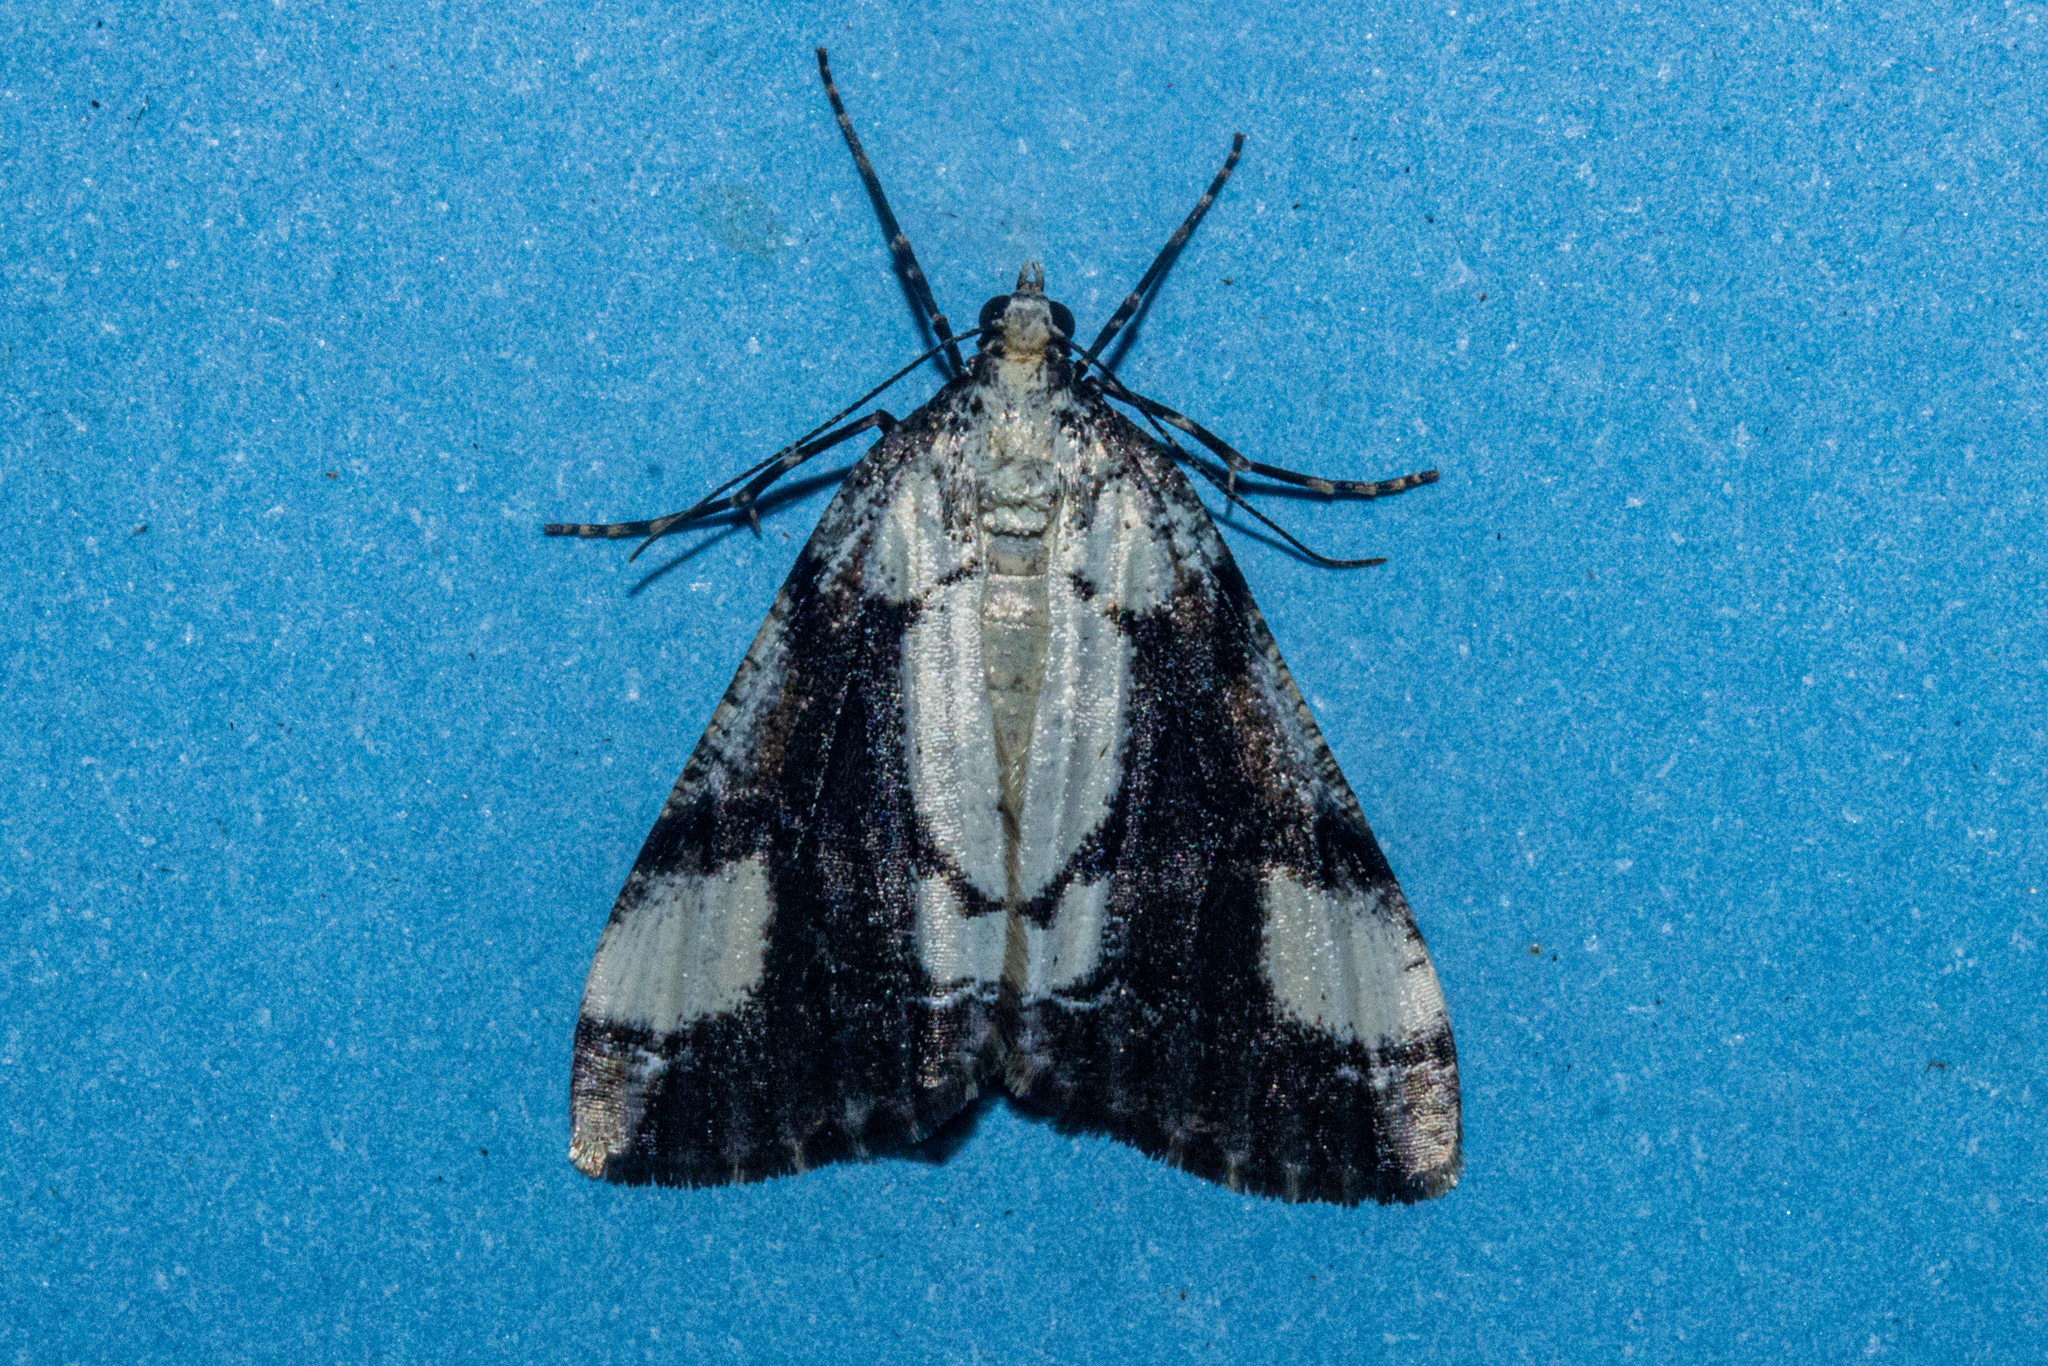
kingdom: Animalia
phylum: Arthropoda
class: Insecta
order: Lepidoptera
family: Geometridae
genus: Pseudocoremia
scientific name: Pseudocoremia leucelaea
